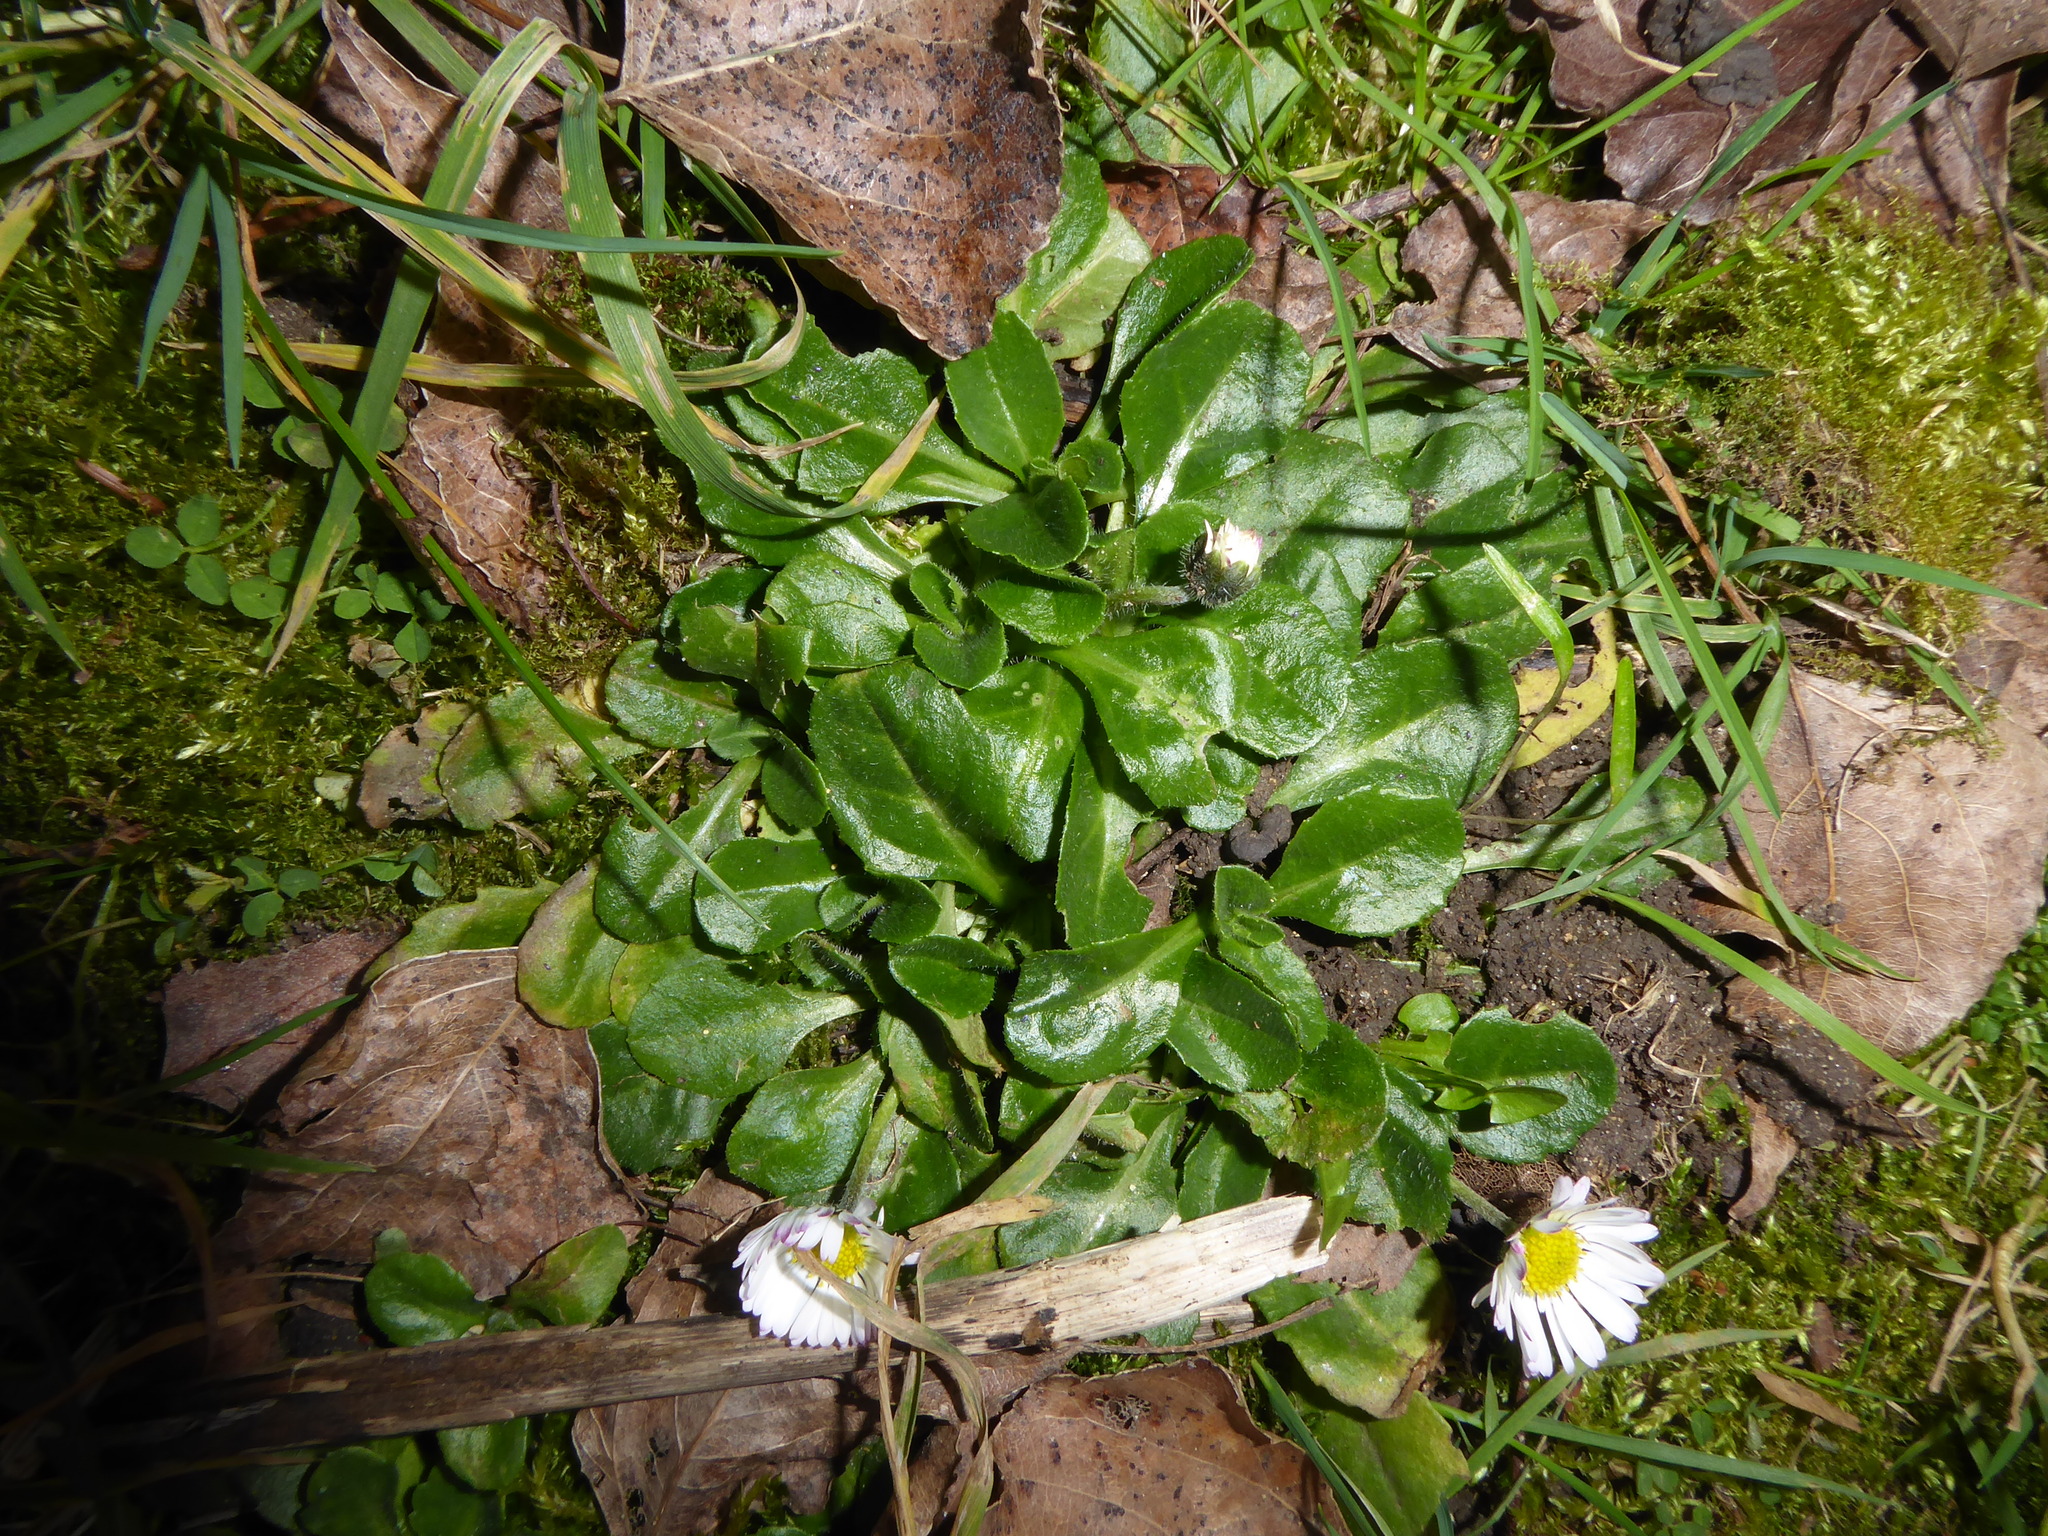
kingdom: Plantae
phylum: Tracheophyta
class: Magnoliopsida
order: Asterales
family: Asteraceae
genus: Bellis
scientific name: Bellis perennis
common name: Lawndaisy
